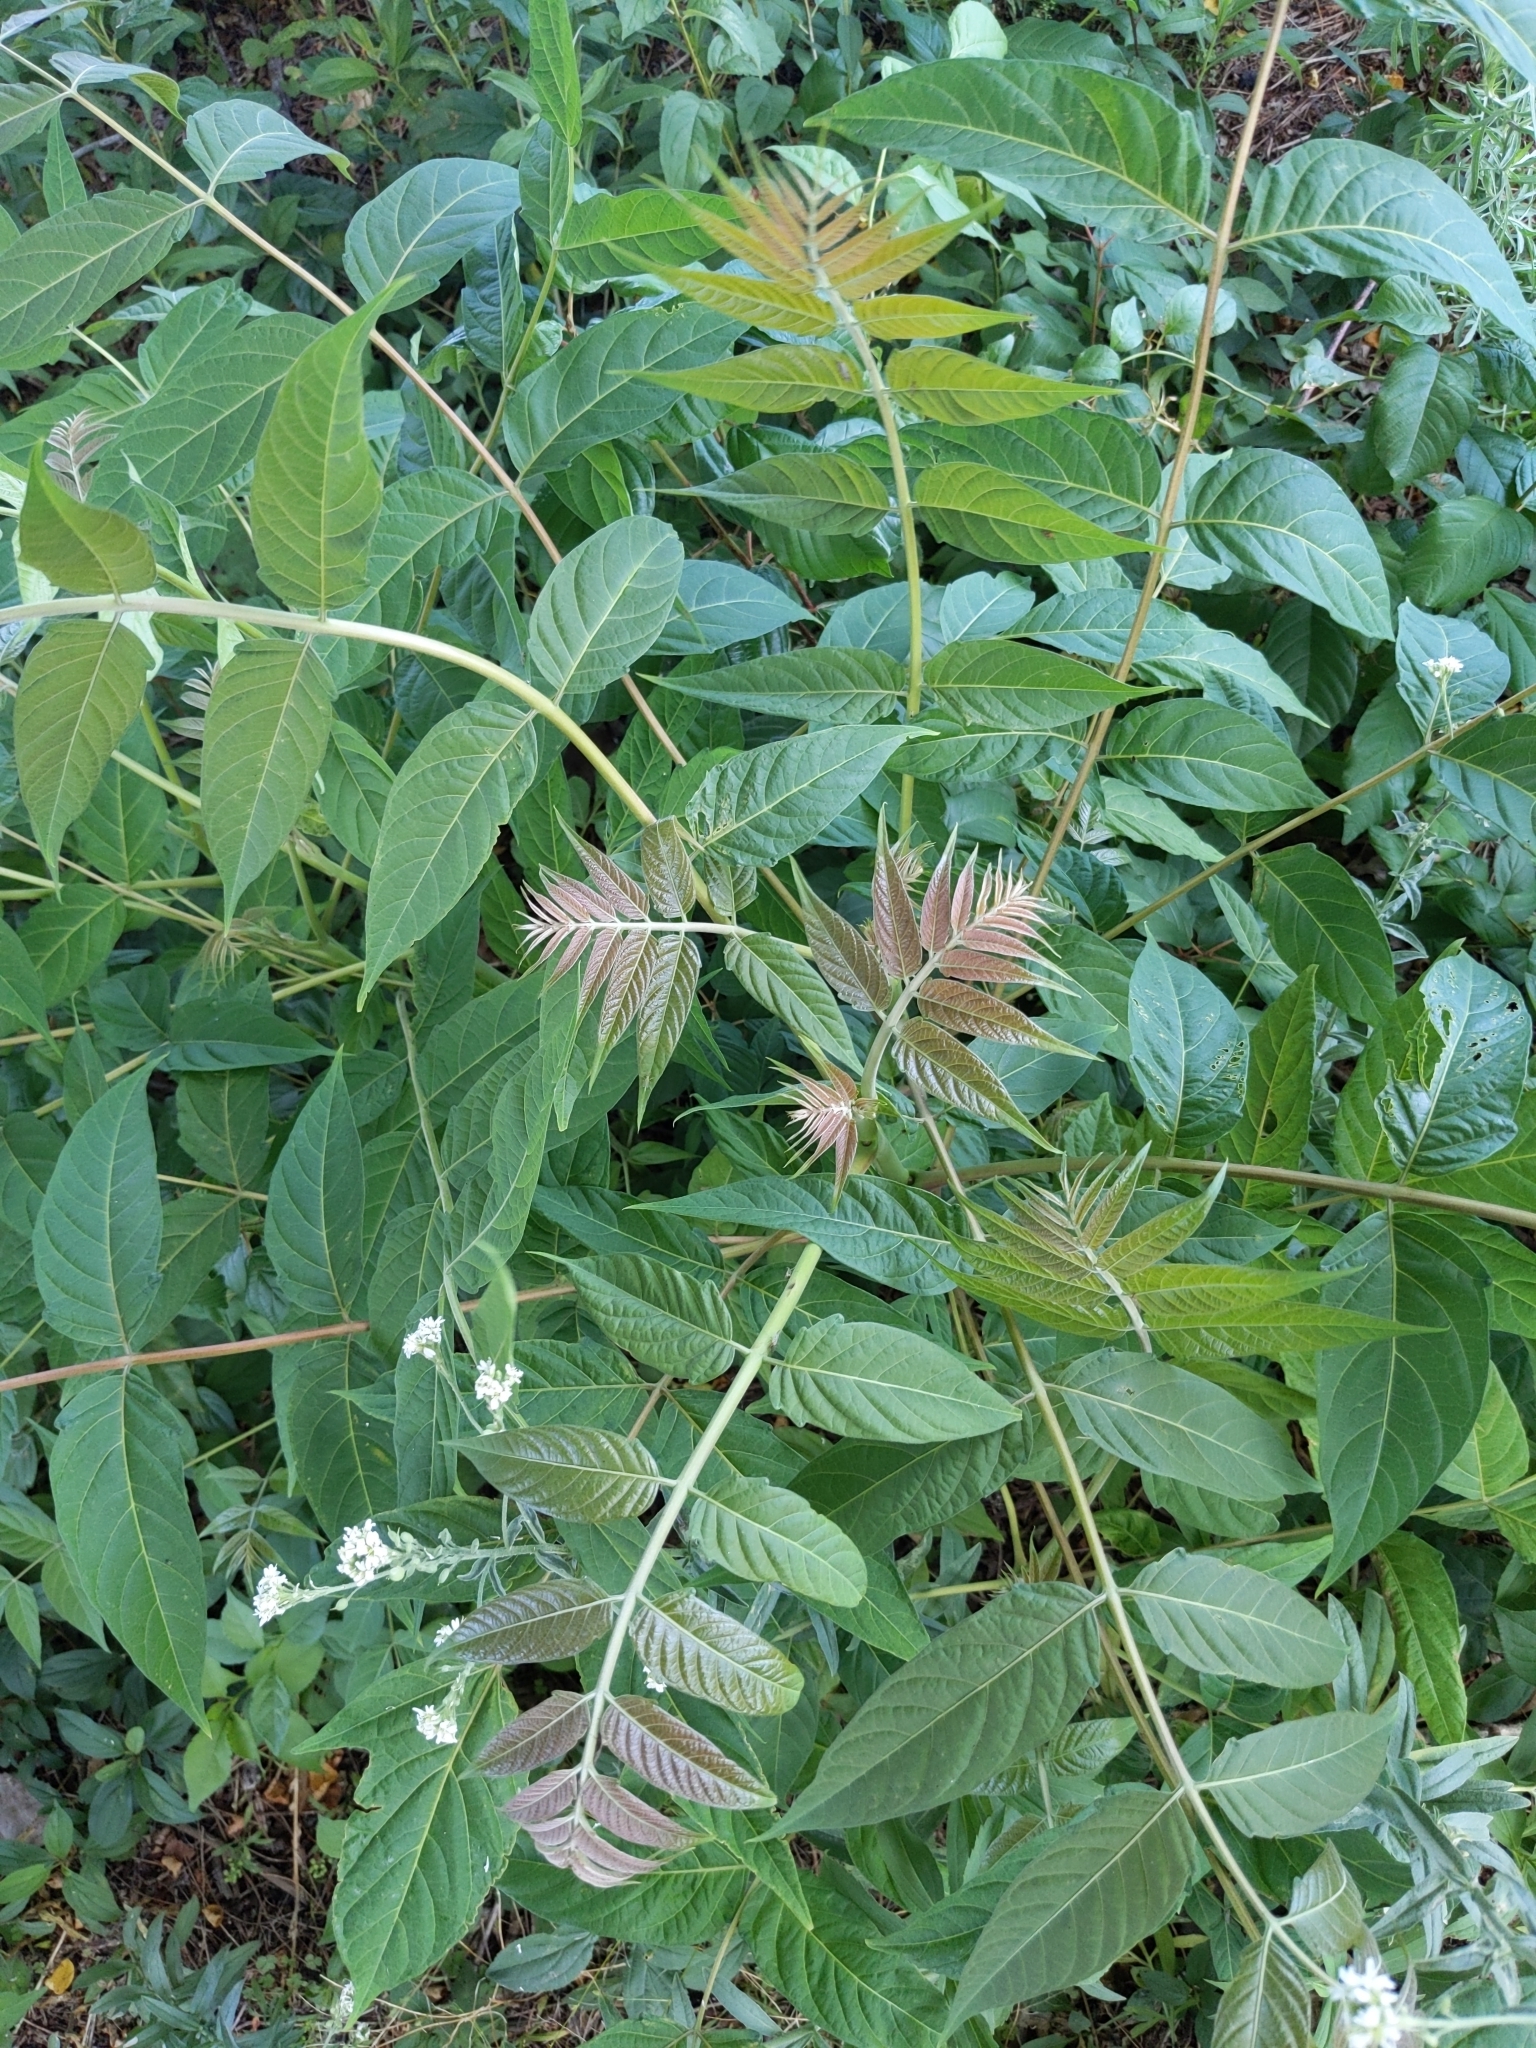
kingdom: Plantae
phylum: Tracheophyta
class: Magnoliopsida
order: Sapindales
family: Simaroubaceae
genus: Ailanthus
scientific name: Ailanthus altissima
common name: Tree-of-heaven
